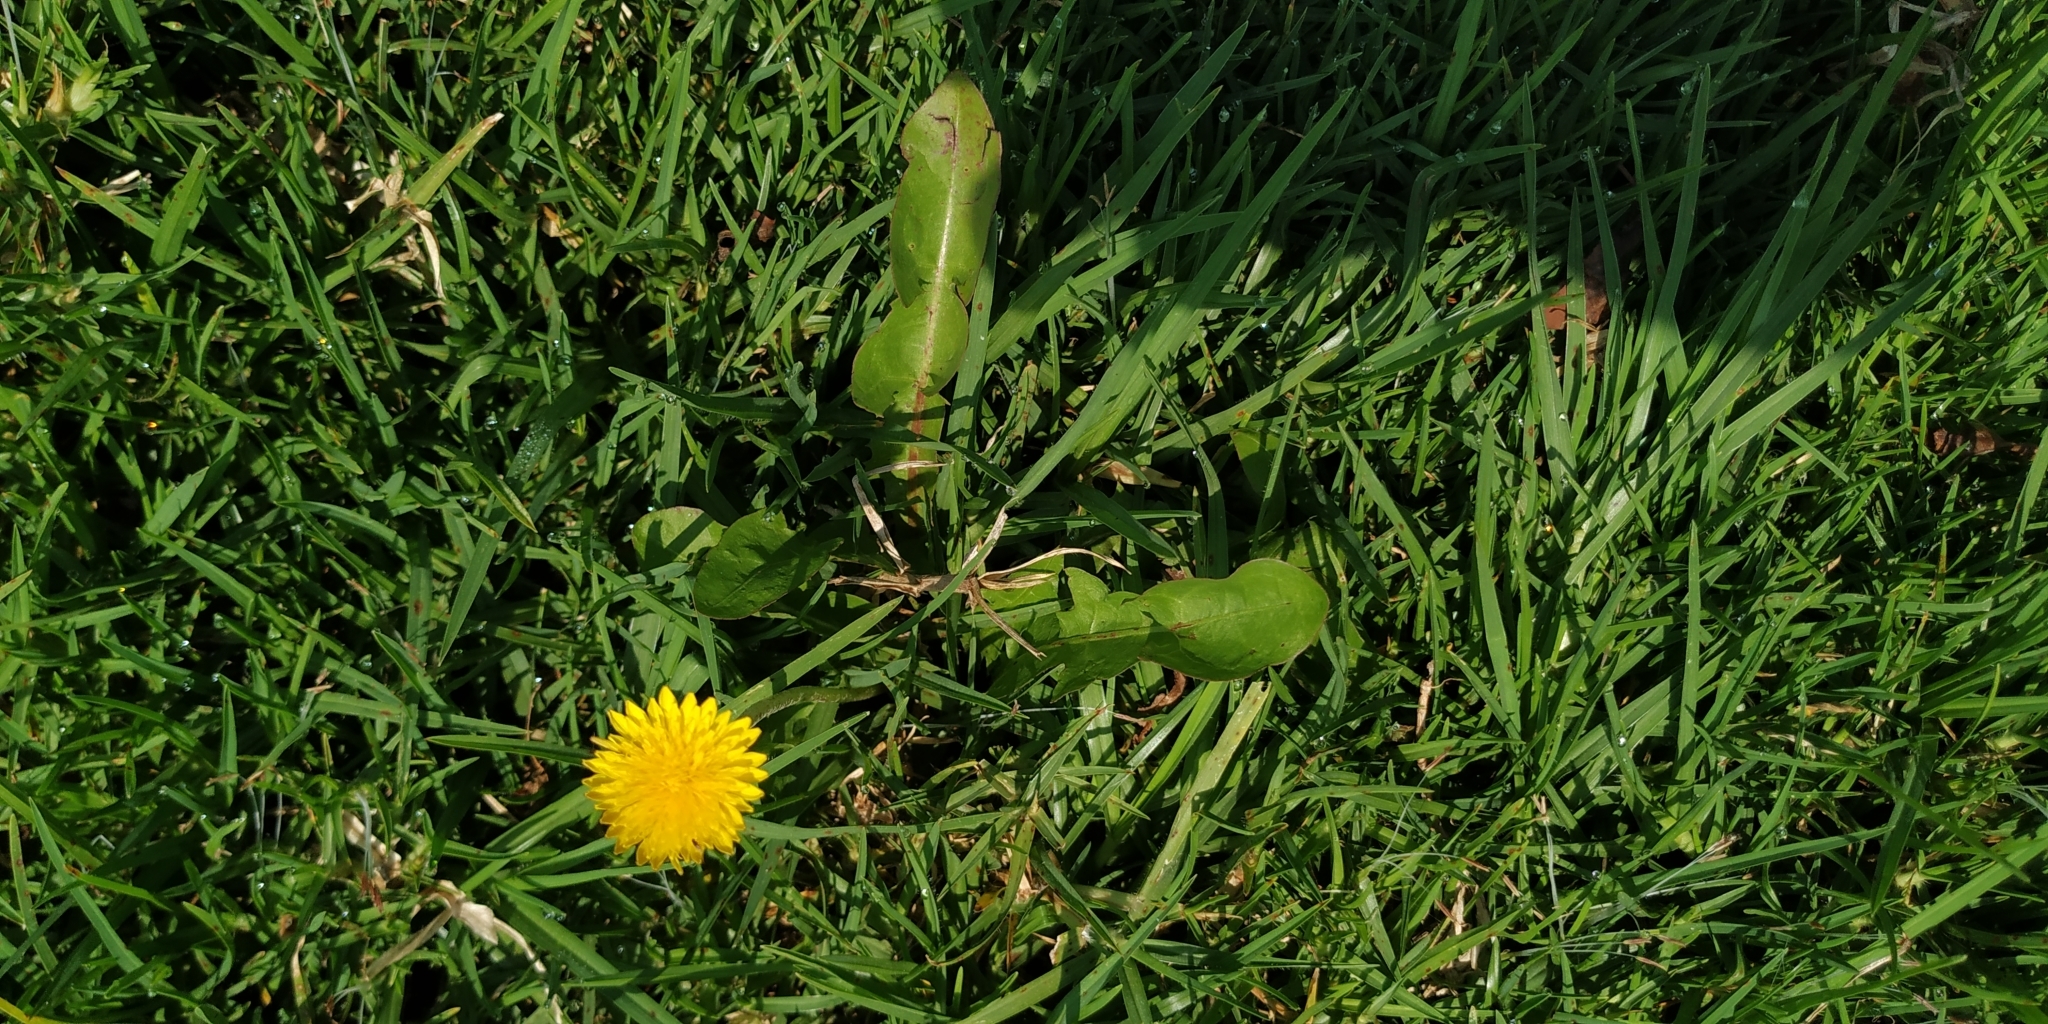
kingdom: Plantae
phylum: Tracheophyta
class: Magnoliopsida
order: Asterales
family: Asteraceae
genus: Taraxacum
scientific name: Taraxacum officinale
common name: Common dandelion
